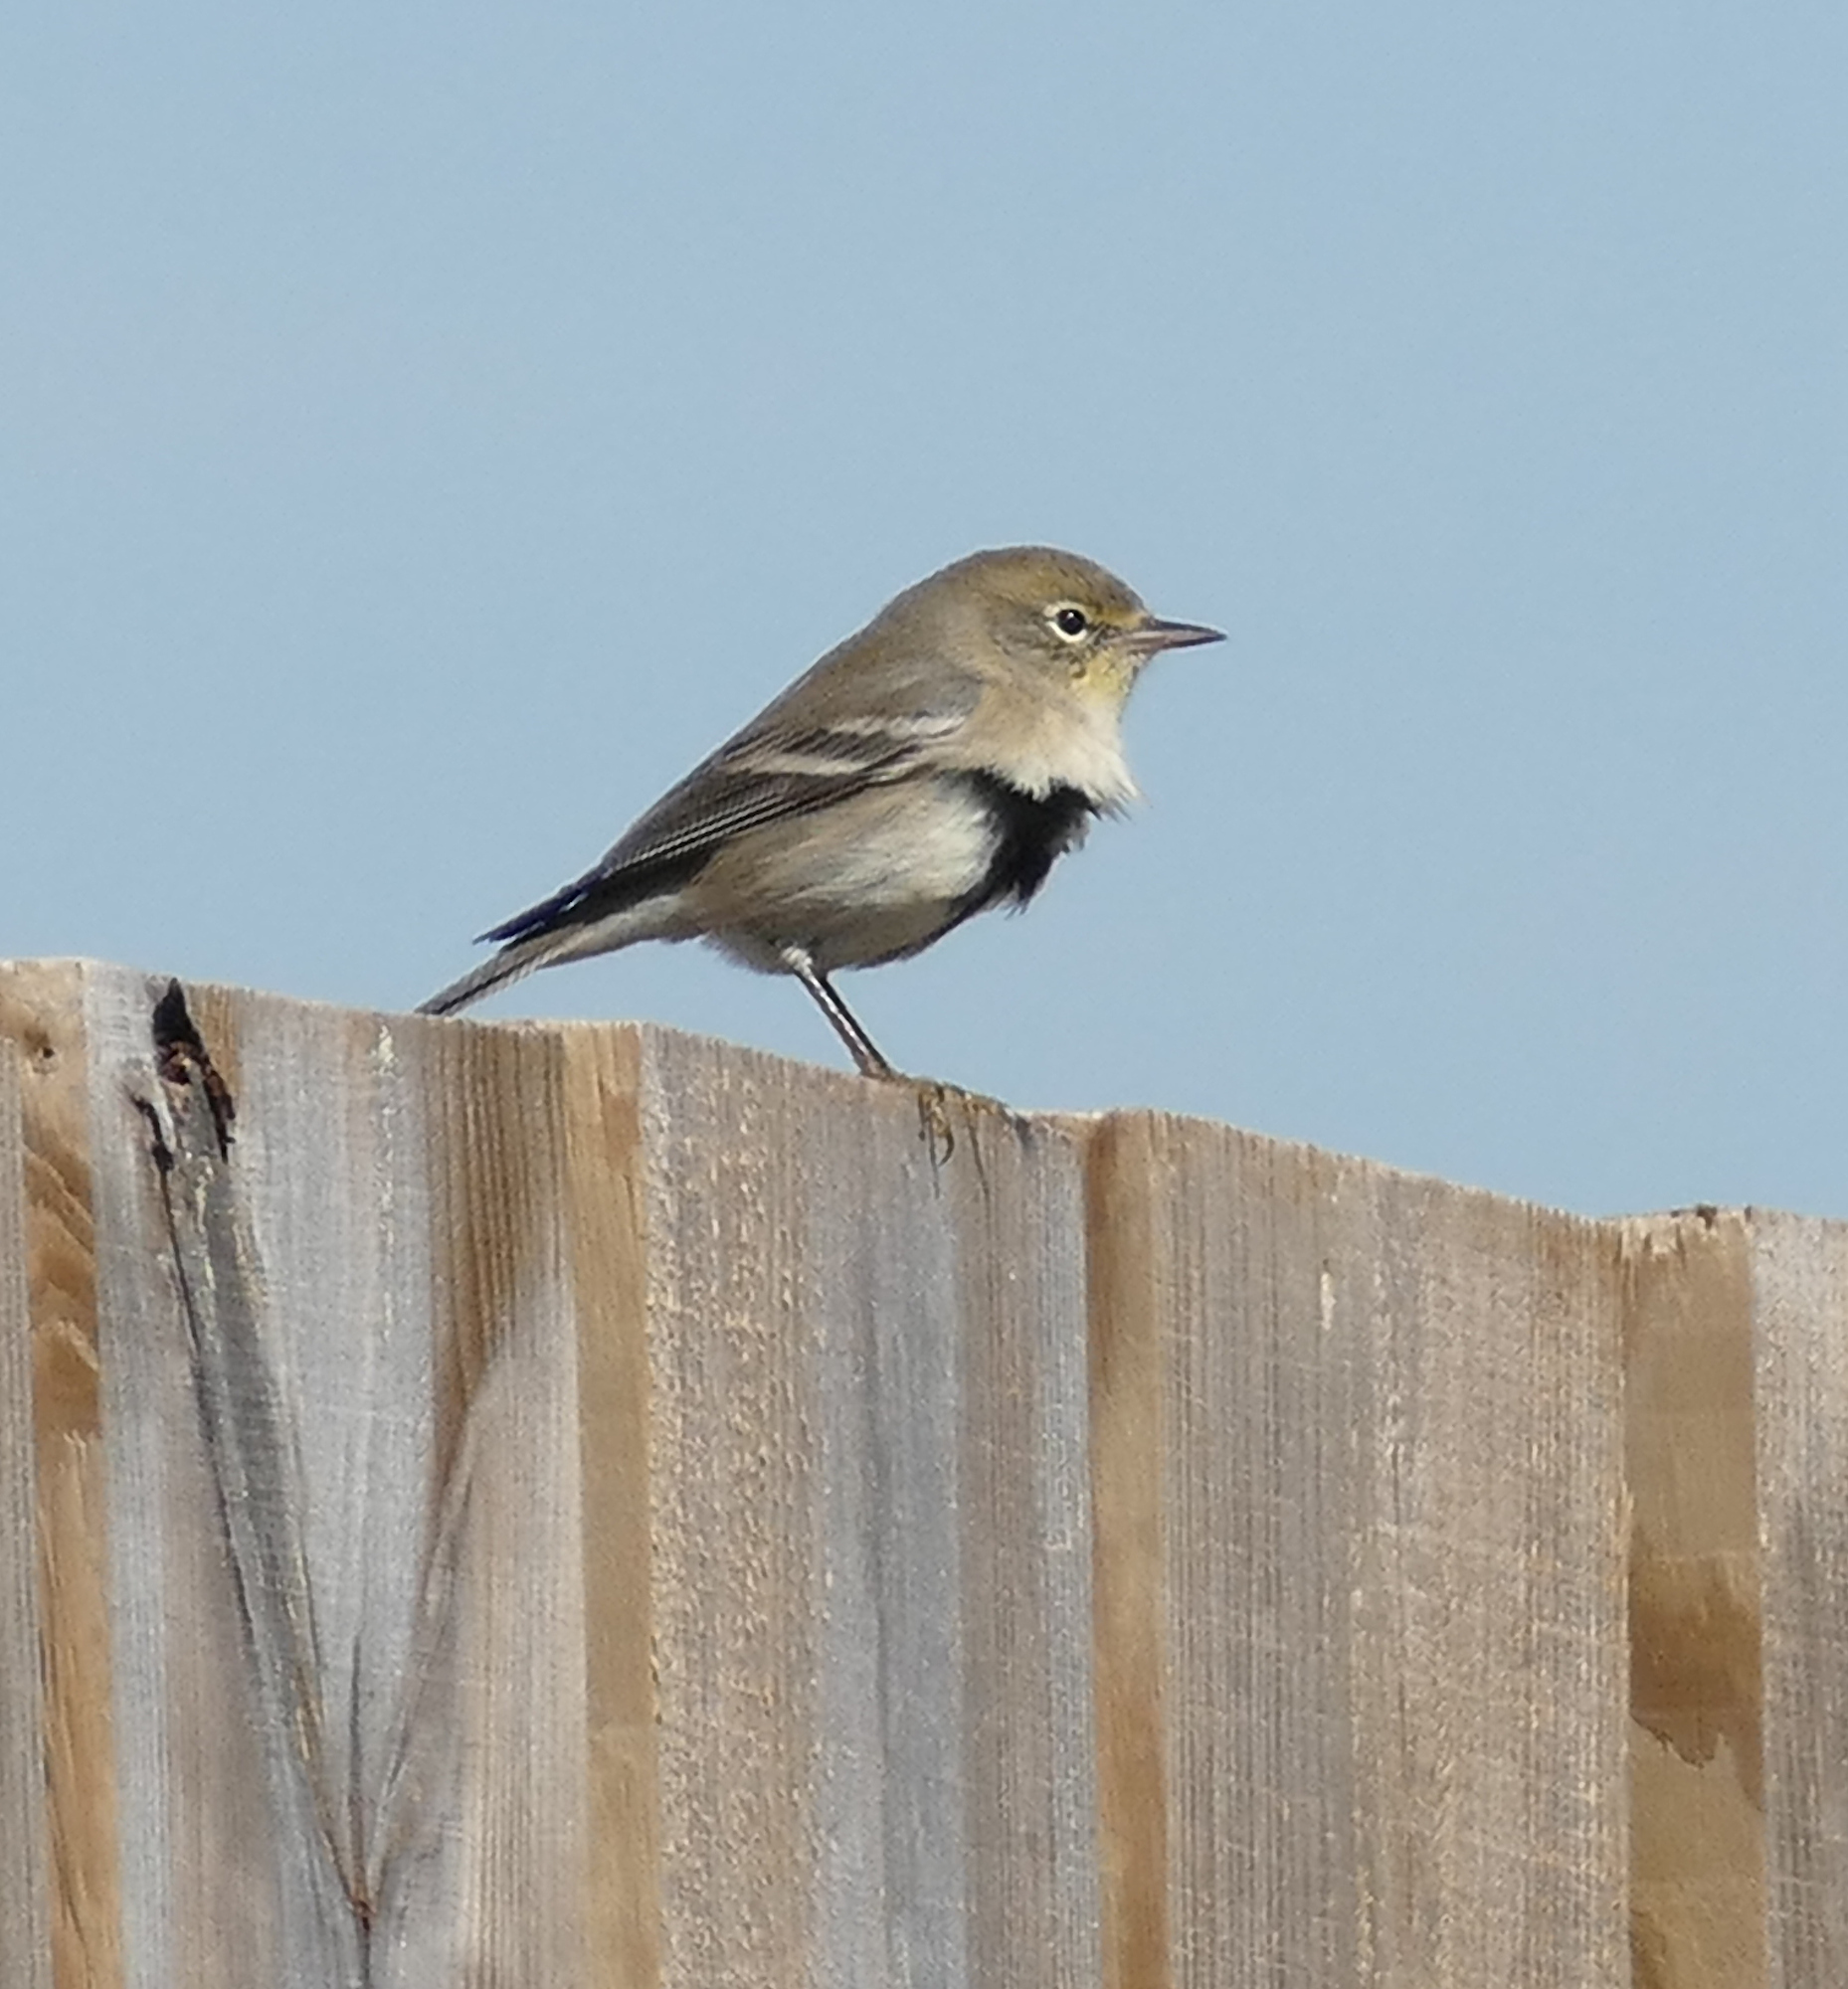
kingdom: Animalia
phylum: Chordata
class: Aves
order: Passeriformes
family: Parulidae
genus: Setophaga
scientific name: Setophaga pinus
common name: Pine warbler
